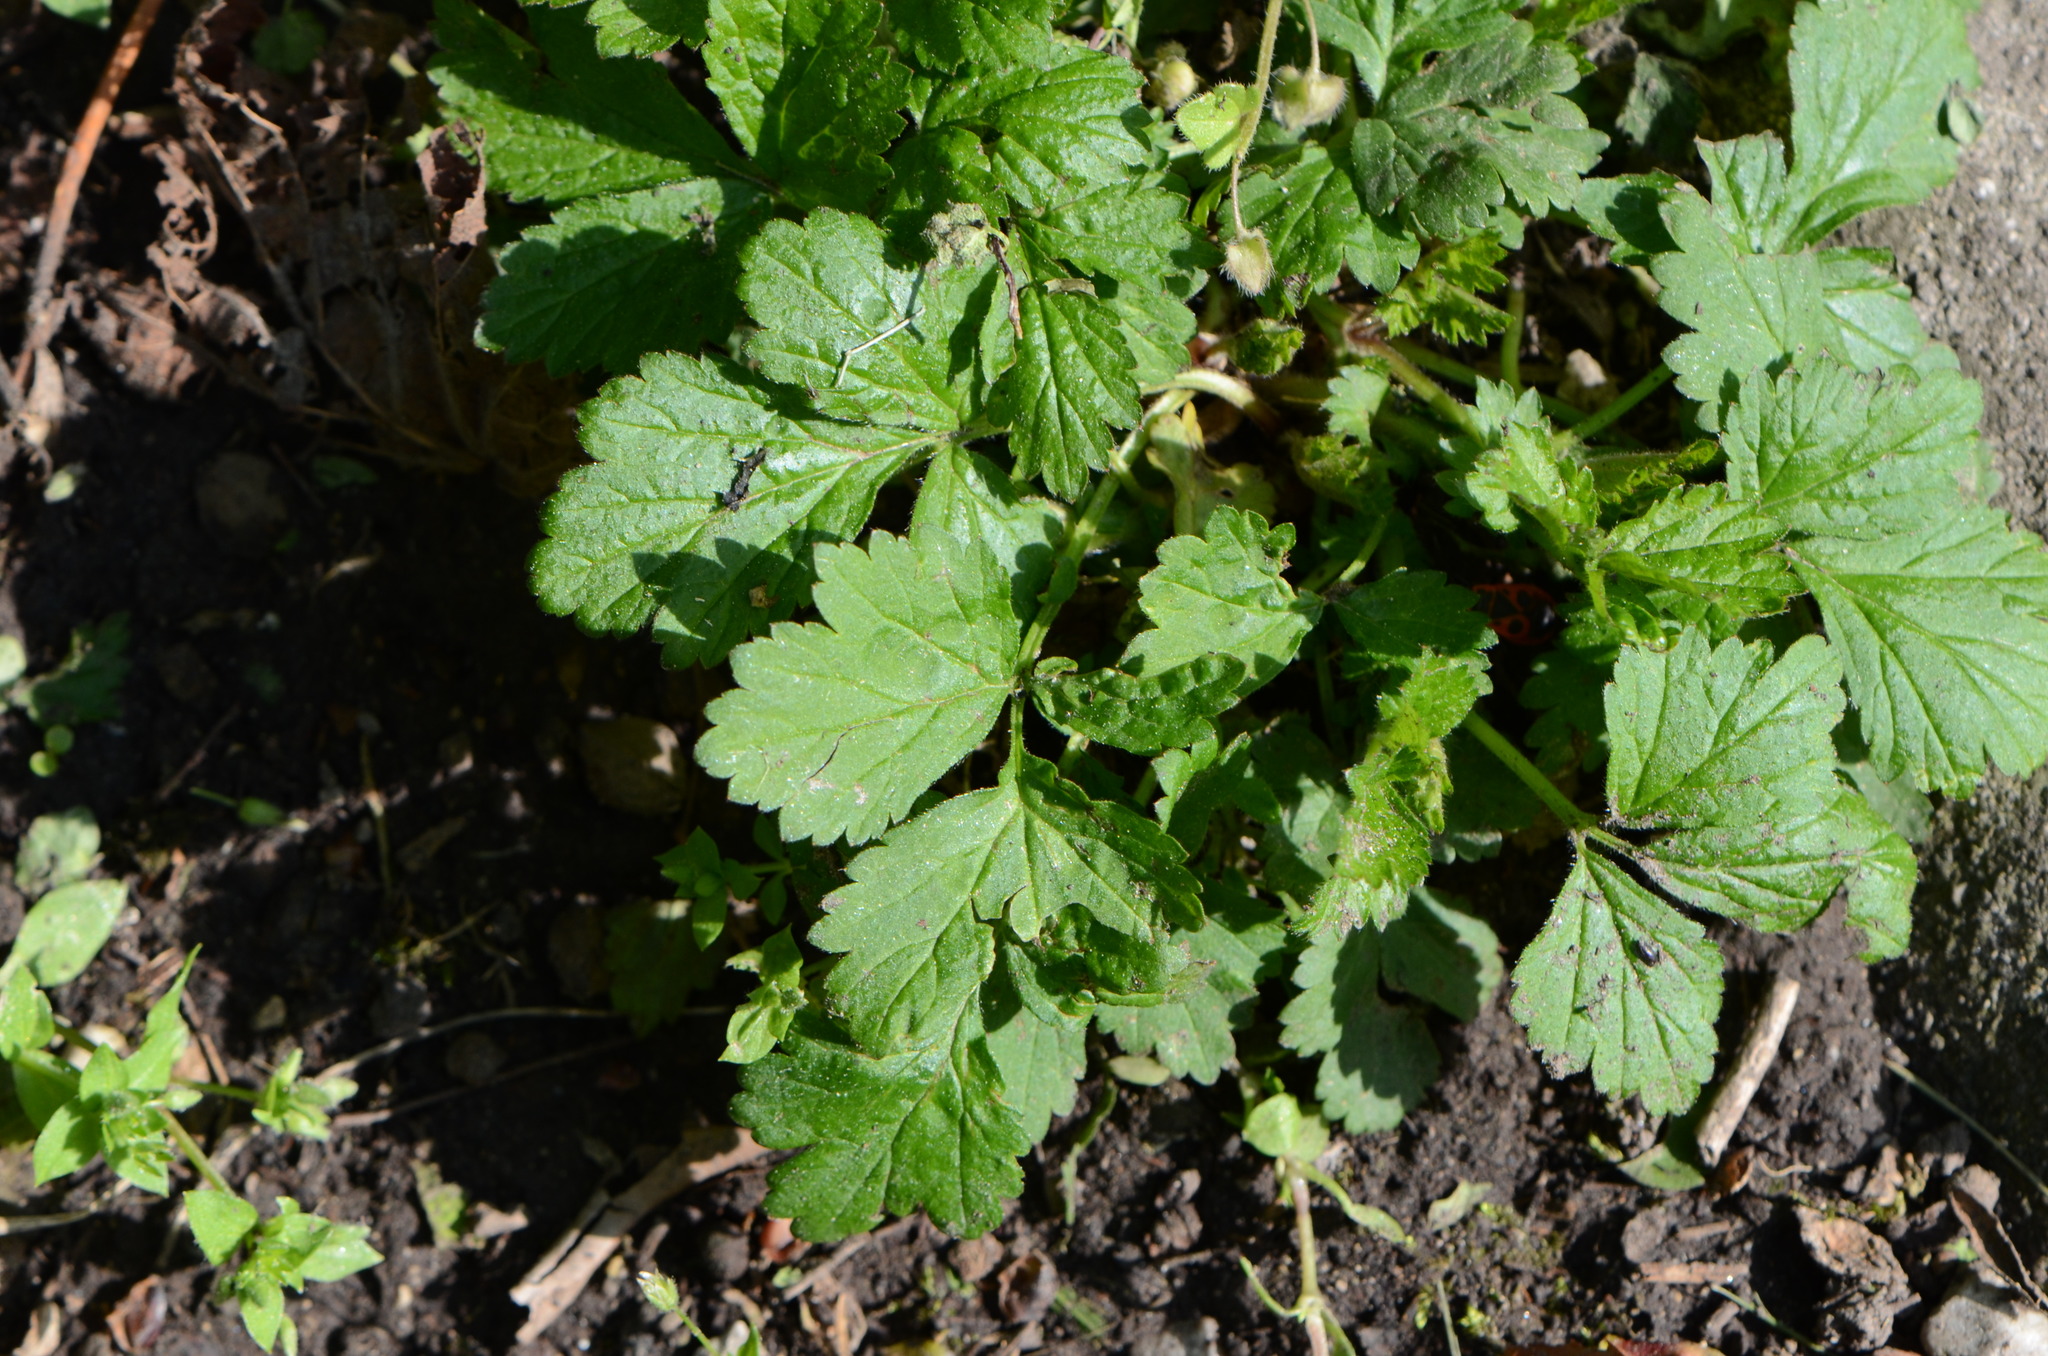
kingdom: Plantae
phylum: Tracheophyta
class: Magnoliopsida
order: Rosales
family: Rosaceae
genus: Geum
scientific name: Geum urbanum
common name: Wood avens
